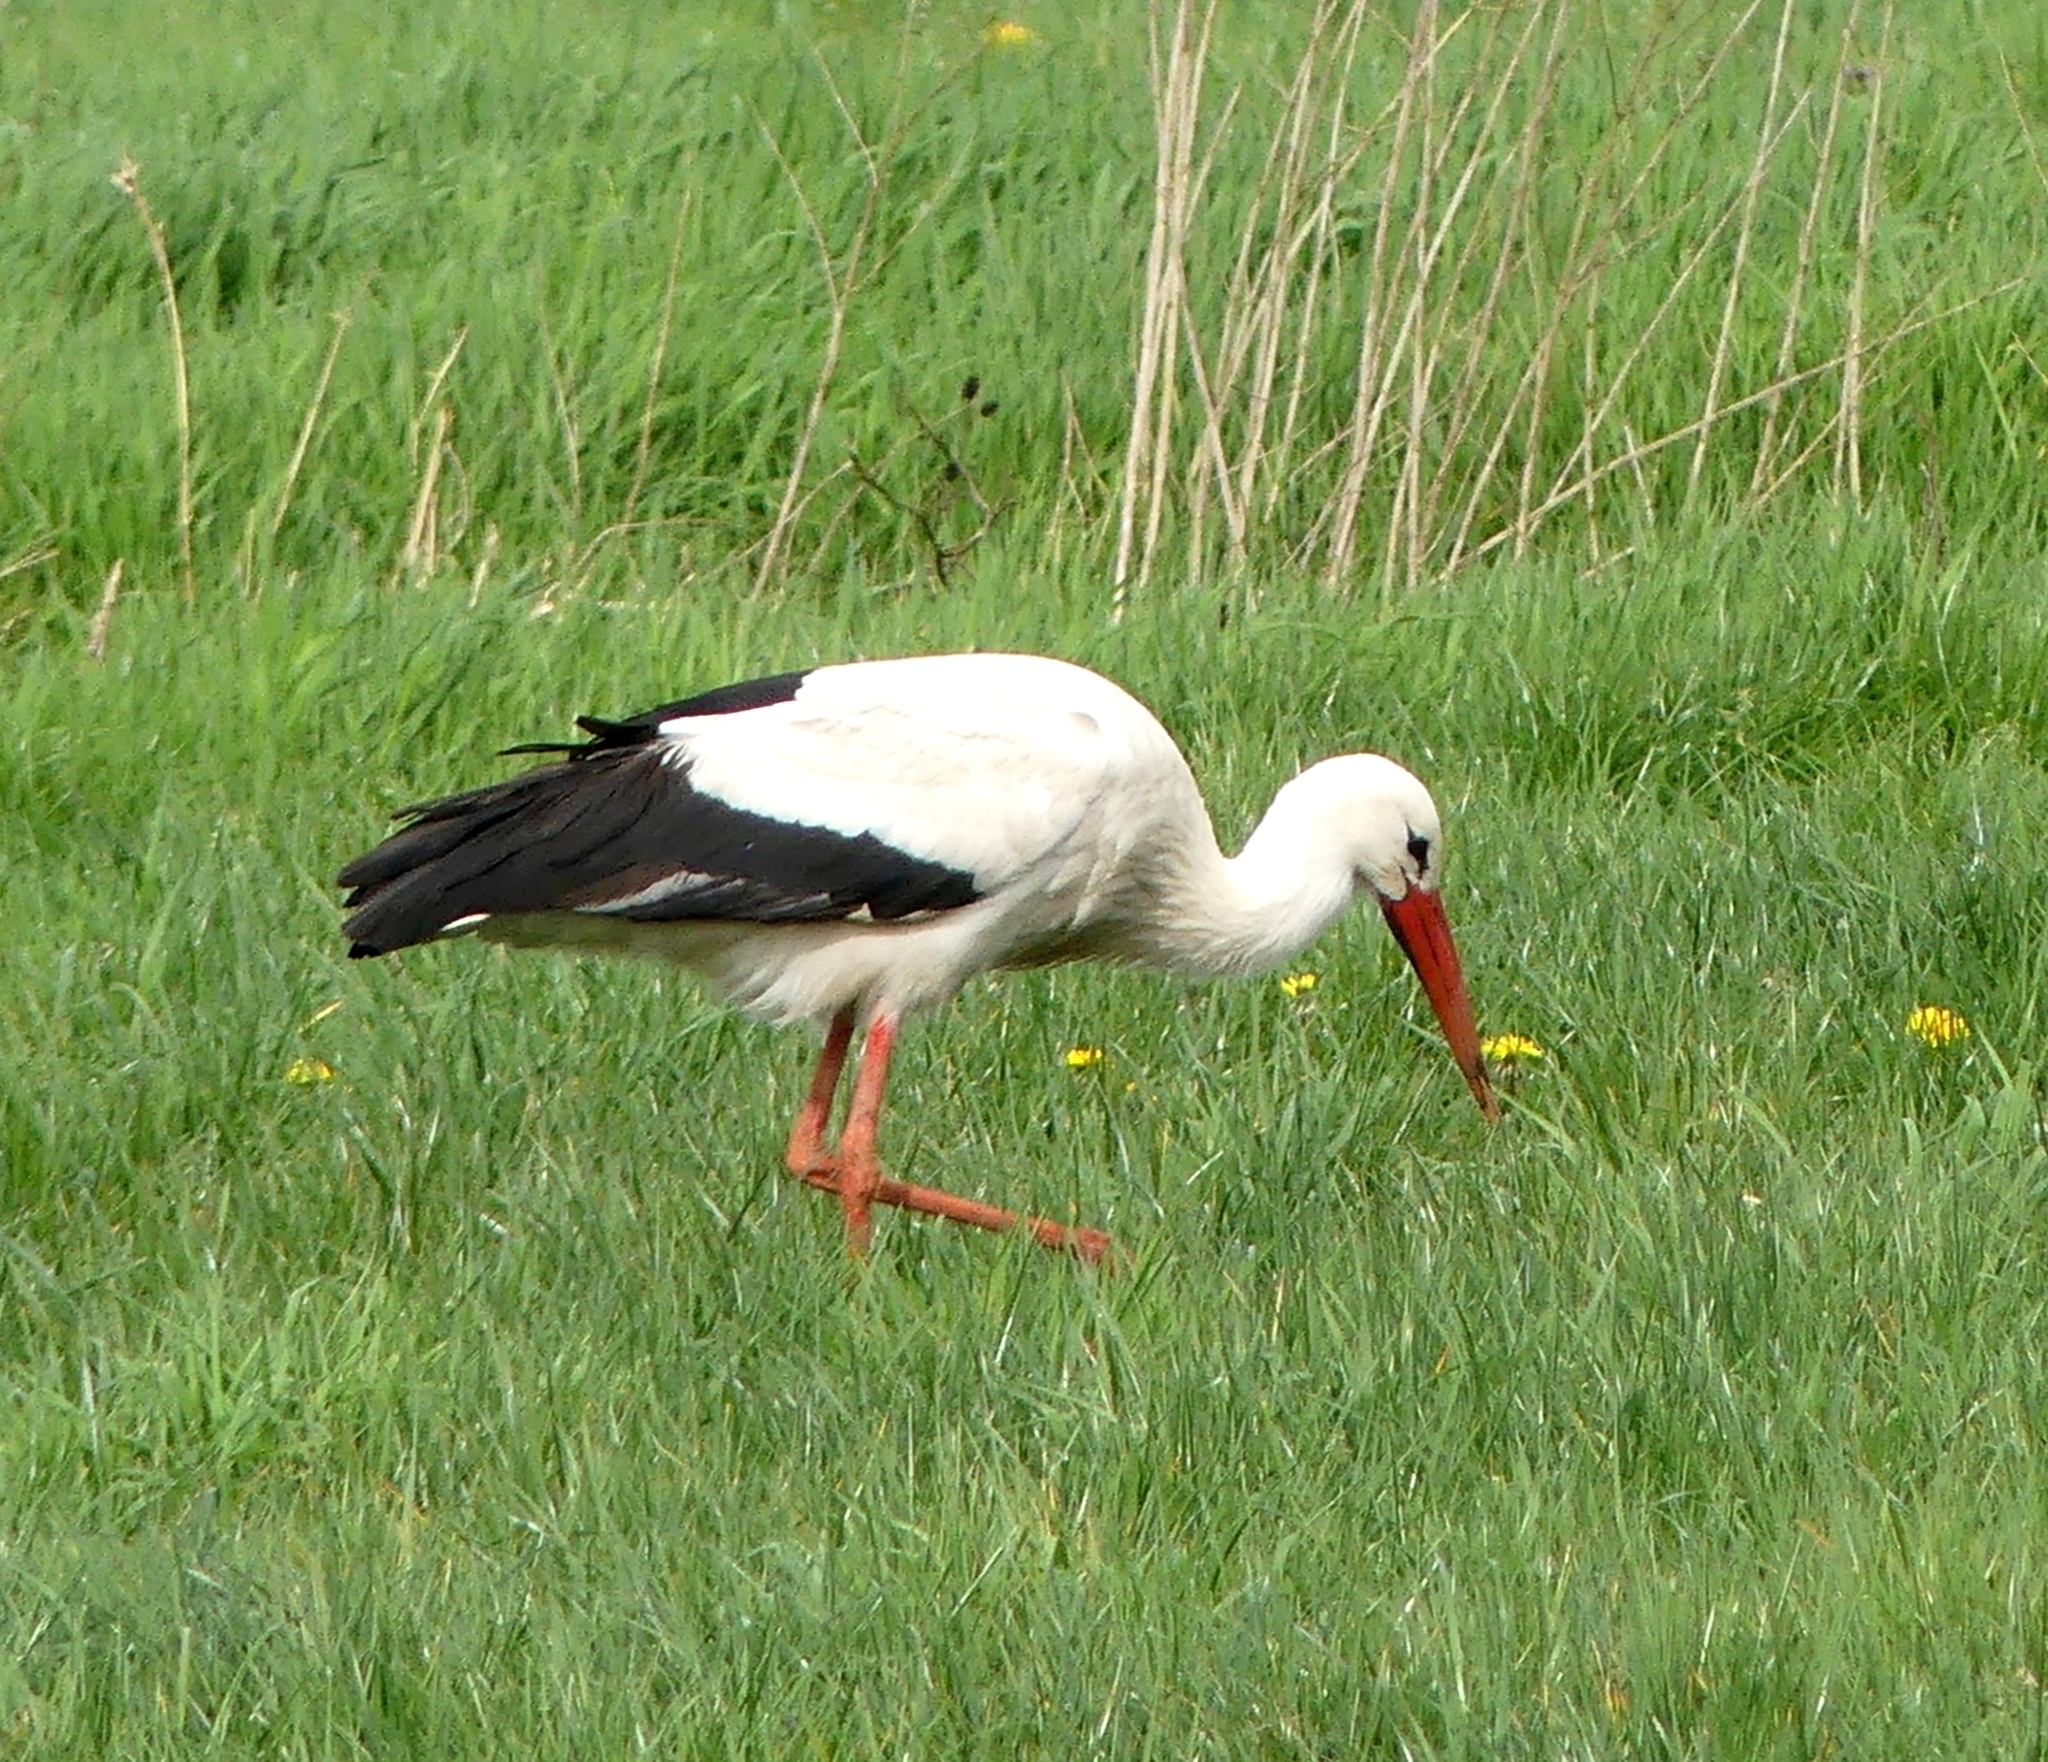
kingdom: Animalia
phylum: Chordata
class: Aves
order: Ciconiiformes
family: Ciconiidae
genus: Ciconia
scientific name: Ciconia ciconia
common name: White stork
